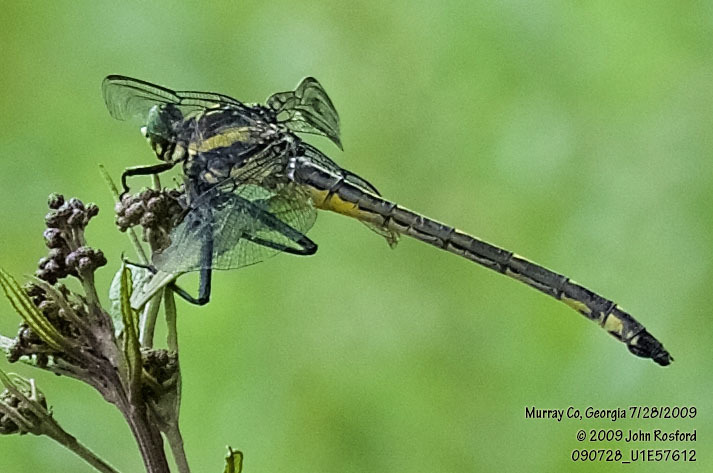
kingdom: Animalia
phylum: Arthropoda
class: Insecta
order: Odonata
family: Gomphidae
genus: Hagenius
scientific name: Hagenius brevistylus
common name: Dragonhunter
